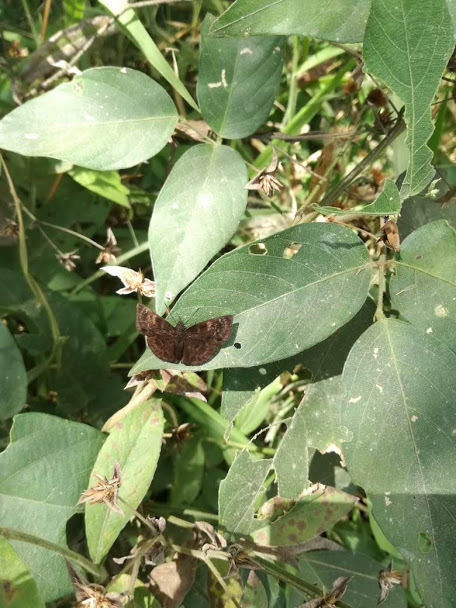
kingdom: Animalia
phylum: Arthropoda
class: Insecta
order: Lepidoptera
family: Hesperiidae
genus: Trina
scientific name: Trina geometrina
